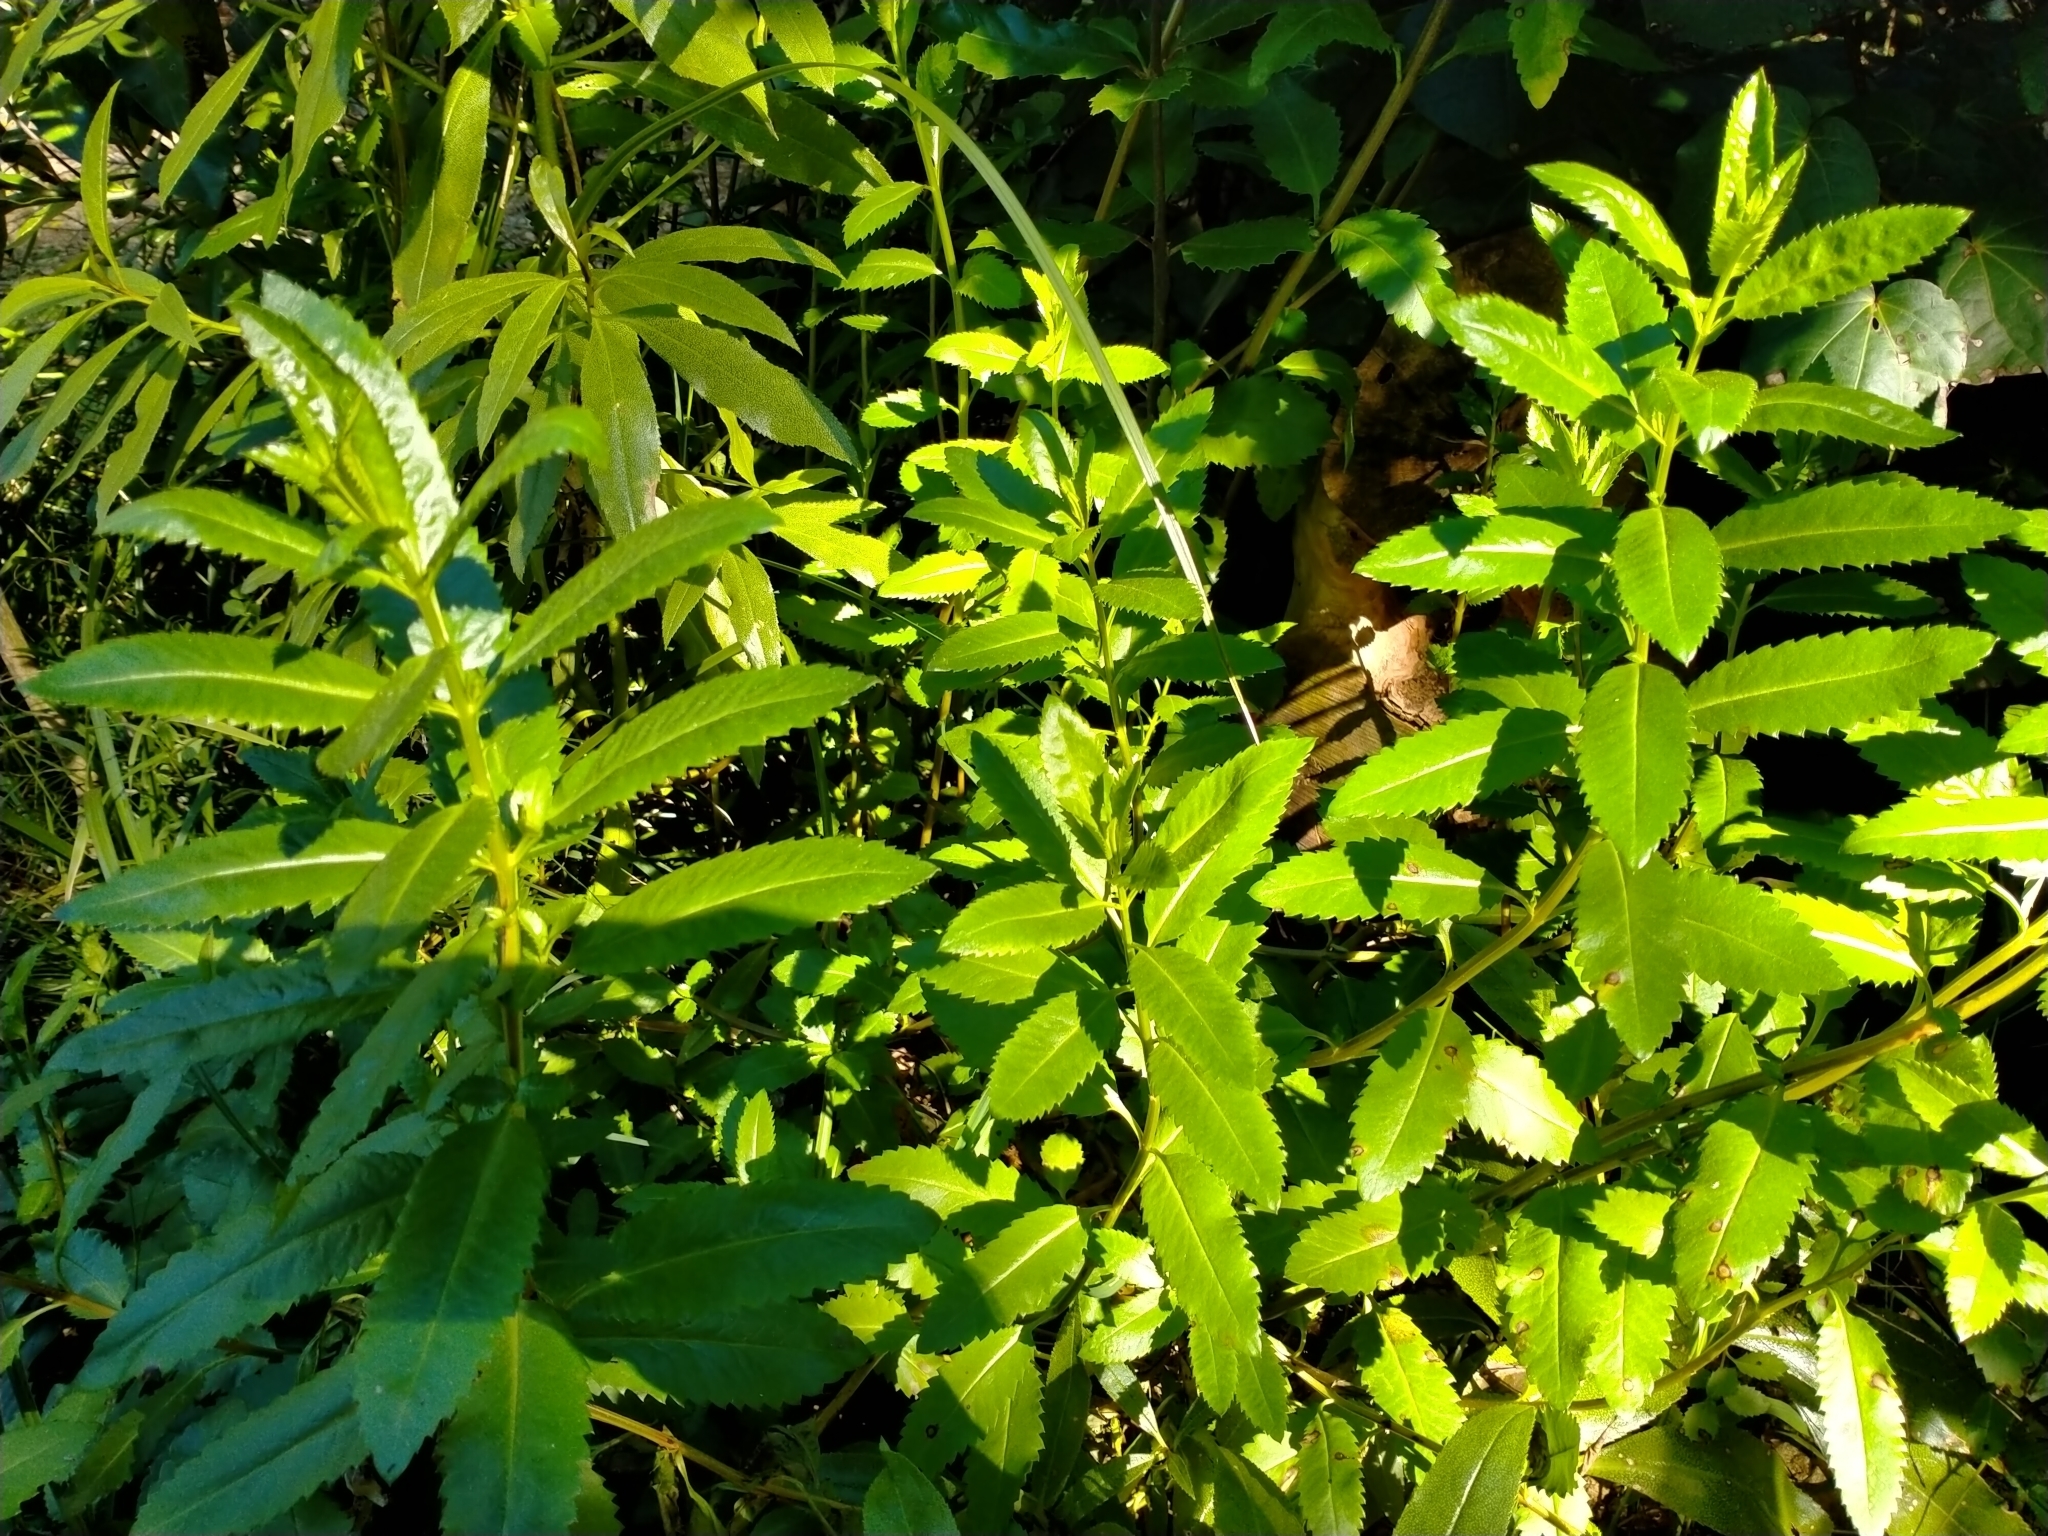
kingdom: Plantae
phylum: Tracheophyta
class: Magnoliopsida
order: Saxifragales
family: Haloragaceae
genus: Haloragis
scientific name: Haloragis erecta
